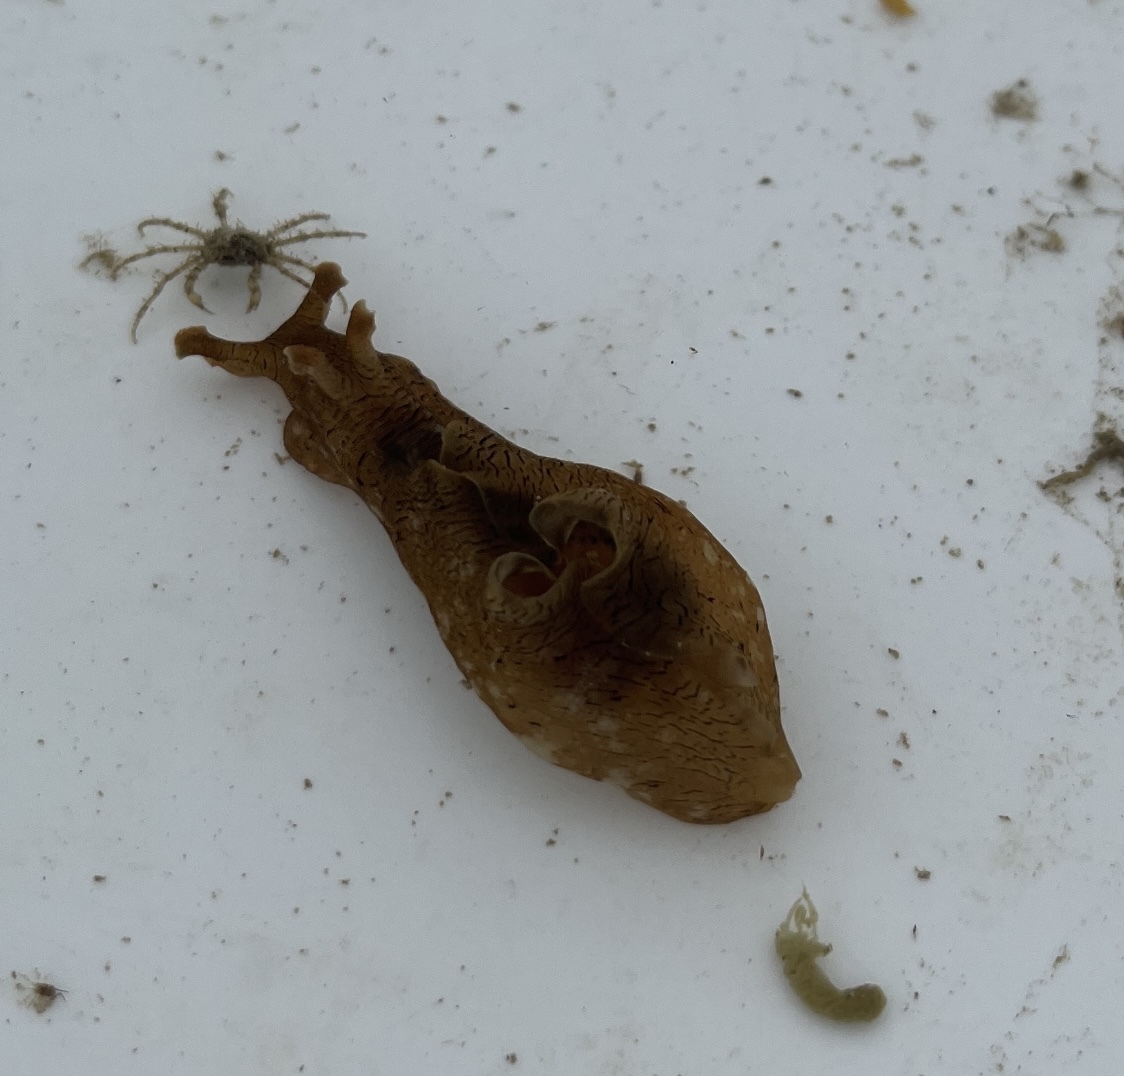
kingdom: Animalia
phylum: Mollusca
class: Gastropoda
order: Aplysiida
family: Aplysiidae
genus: Aplysia
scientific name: Aplysia sydneyensis
